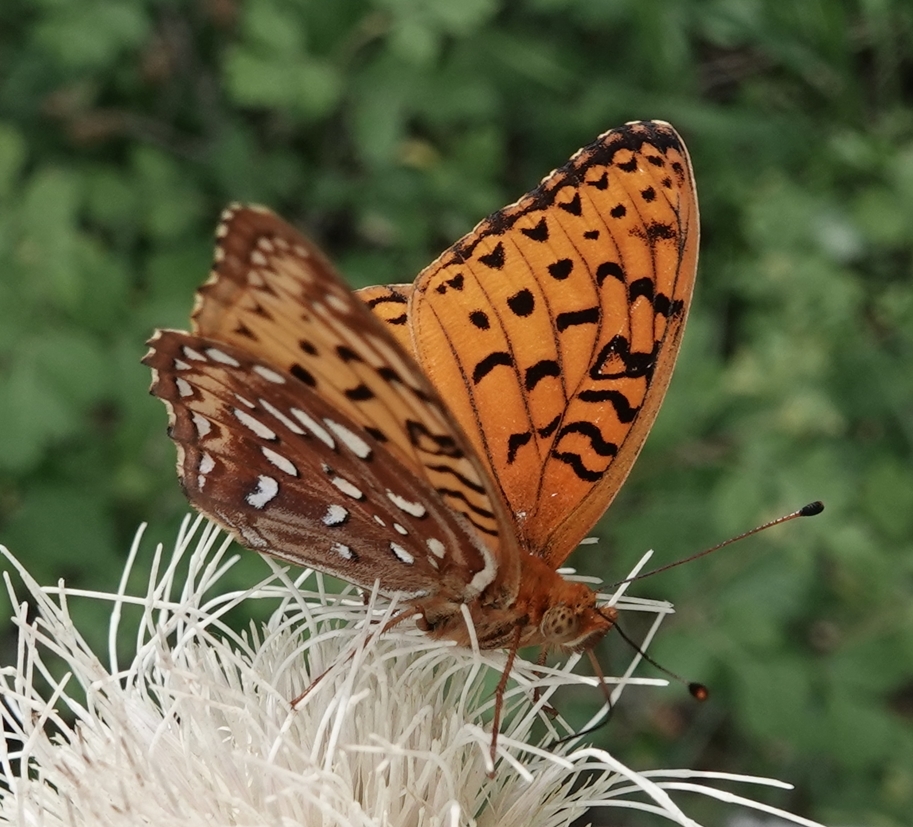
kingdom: Animalia
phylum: Arthropoda
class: Insecta
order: Lepidoptera
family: Nymphalidae
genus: Speyeria
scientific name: Speyeria aphrodite
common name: Aphrodite friitllary
